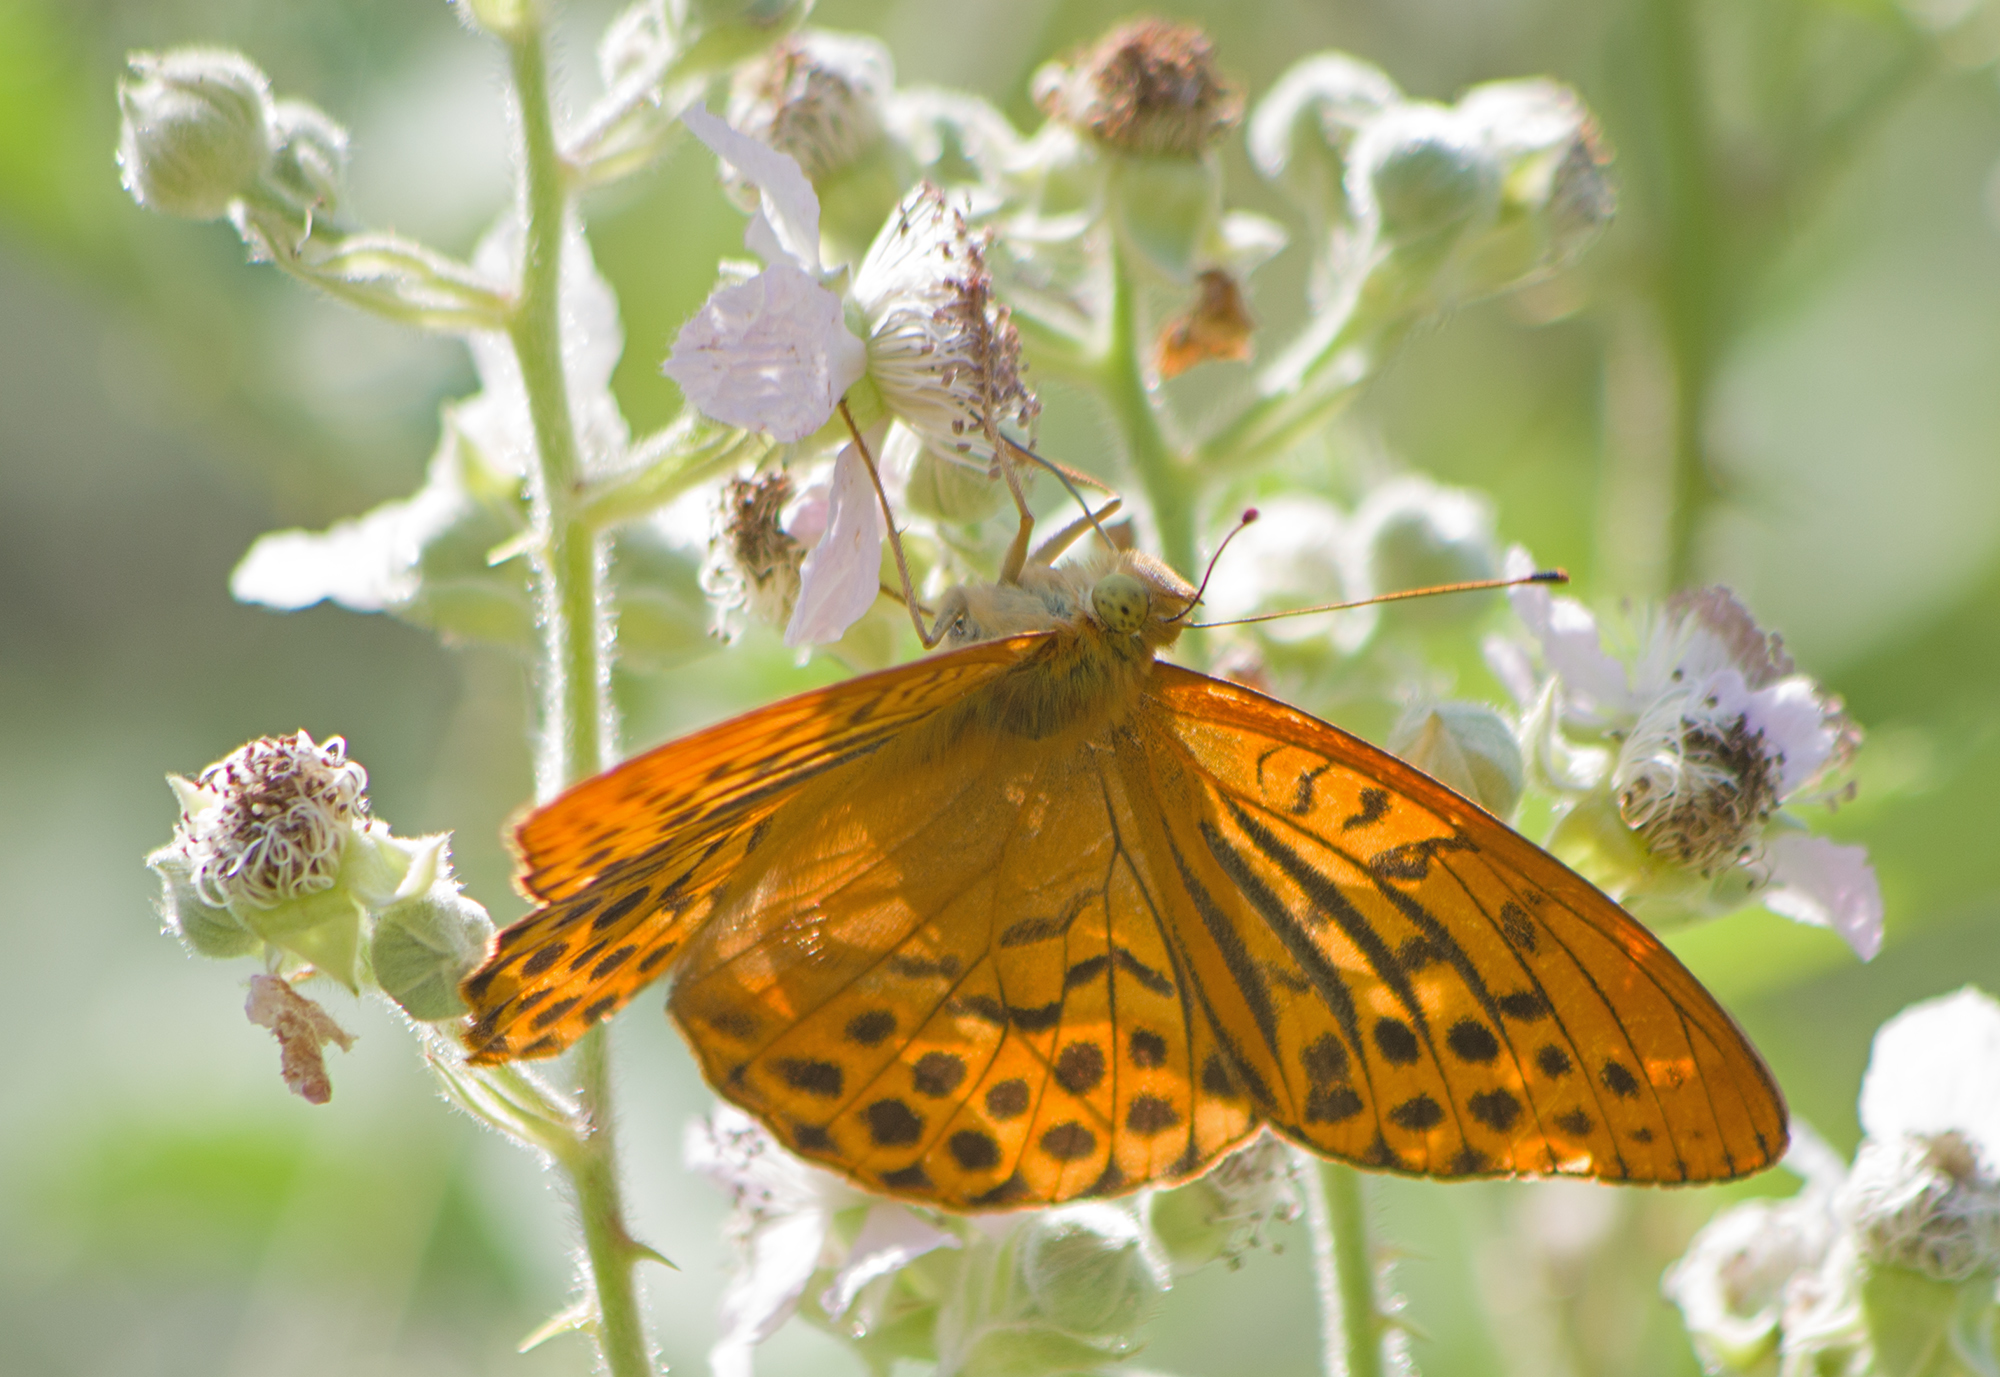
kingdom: Animalia
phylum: Arthropoda
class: Insecta
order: Lepidoptera
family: Nymphalidae
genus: Argynnis
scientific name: Argynnis paphia
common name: Silver-washed fritillary
